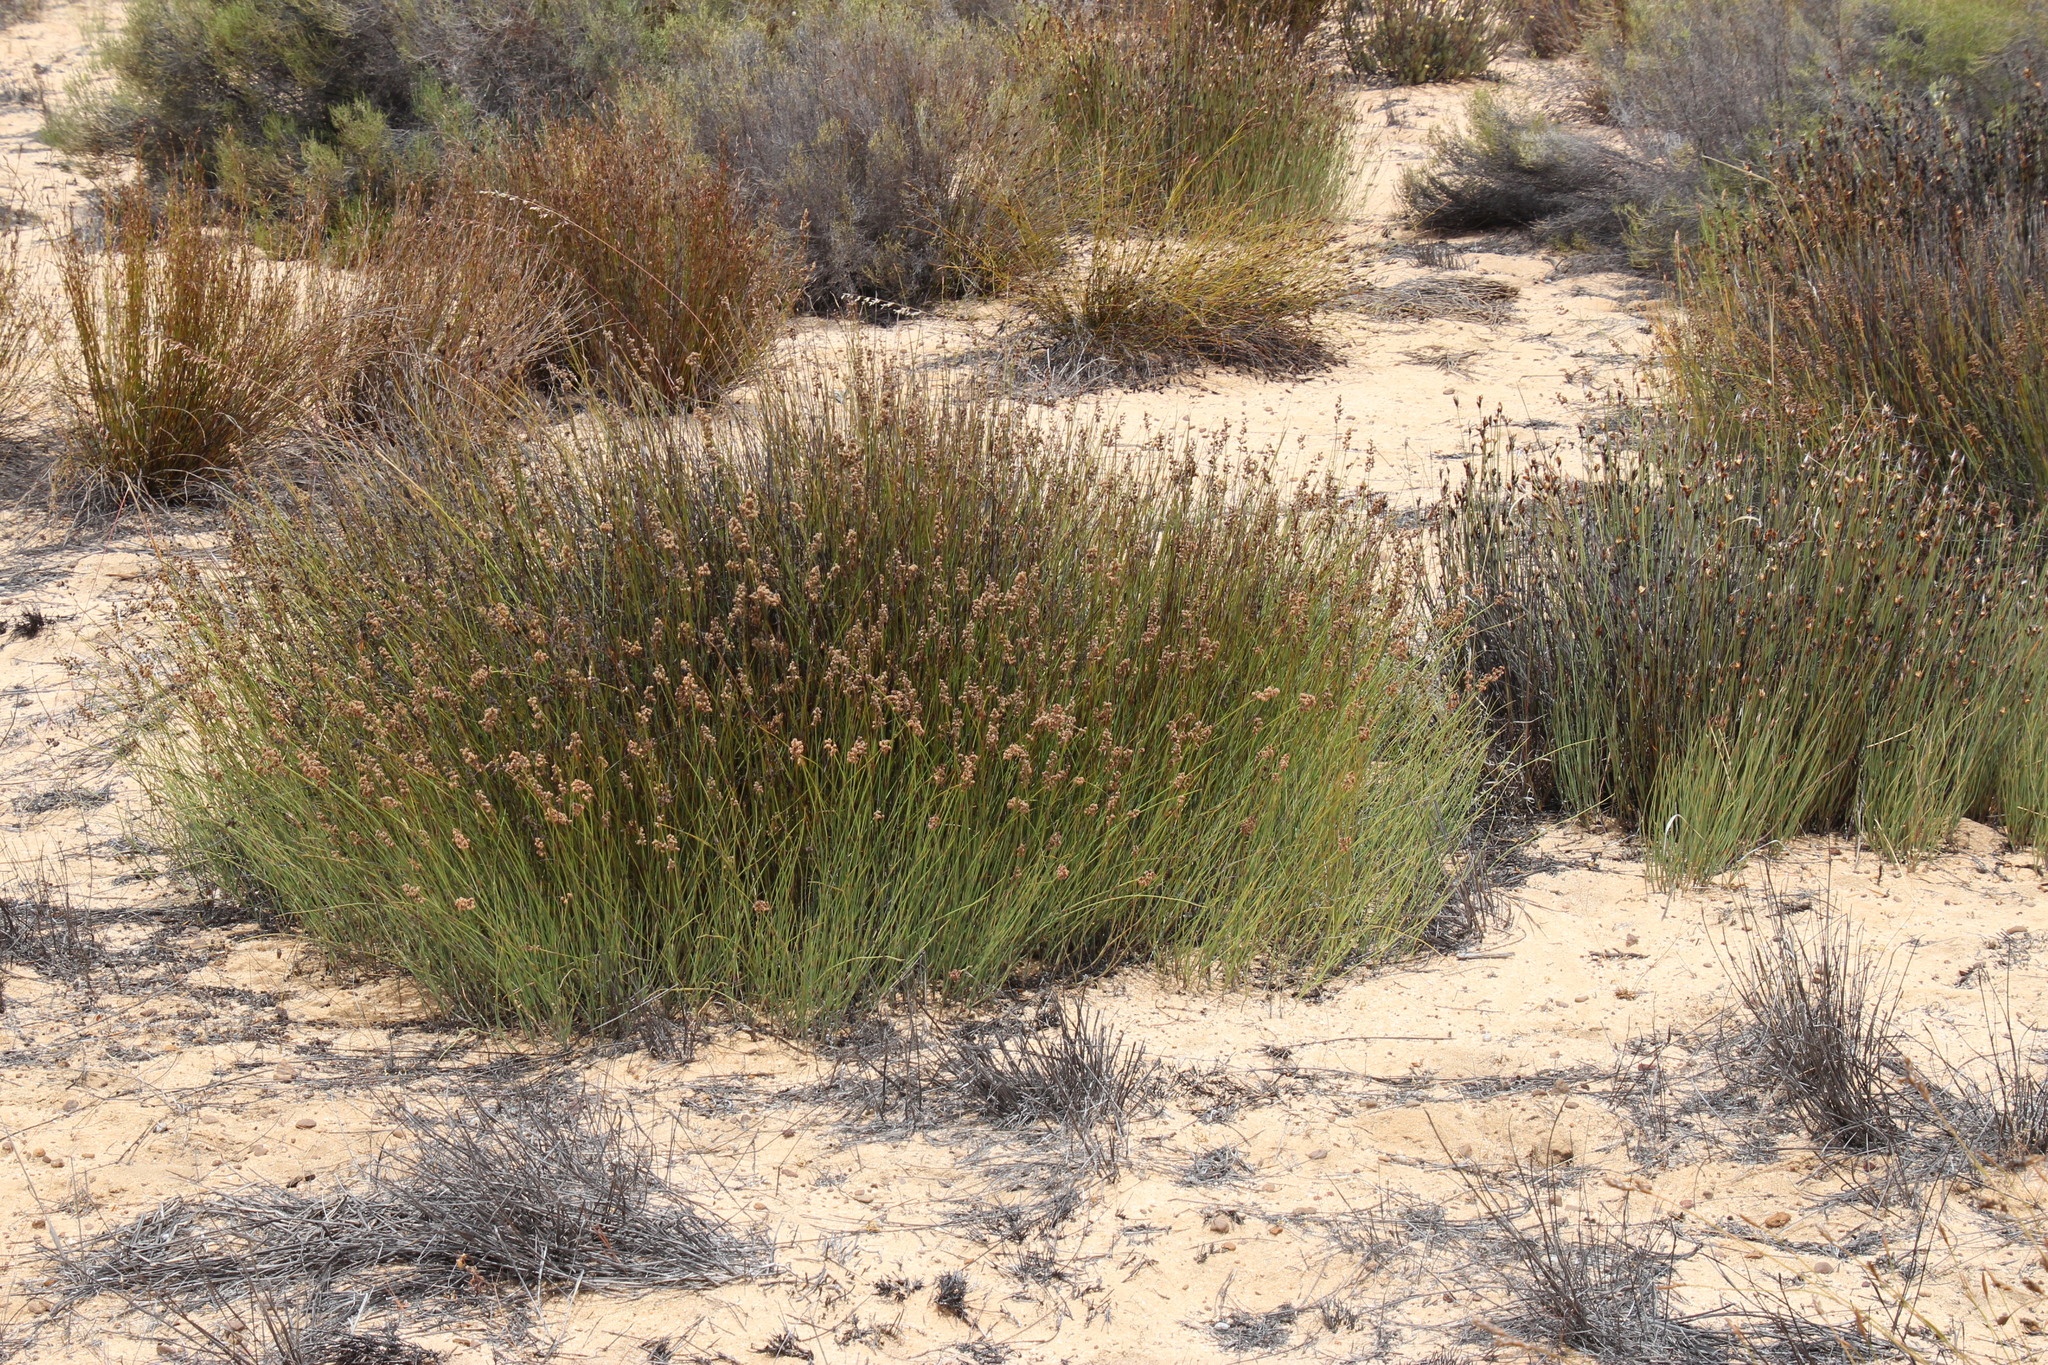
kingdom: Plantae
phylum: Tracheophyta
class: Liliopsida
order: Poales
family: Restionaceae
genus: Cannomois
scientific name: Cannomois parviflora
